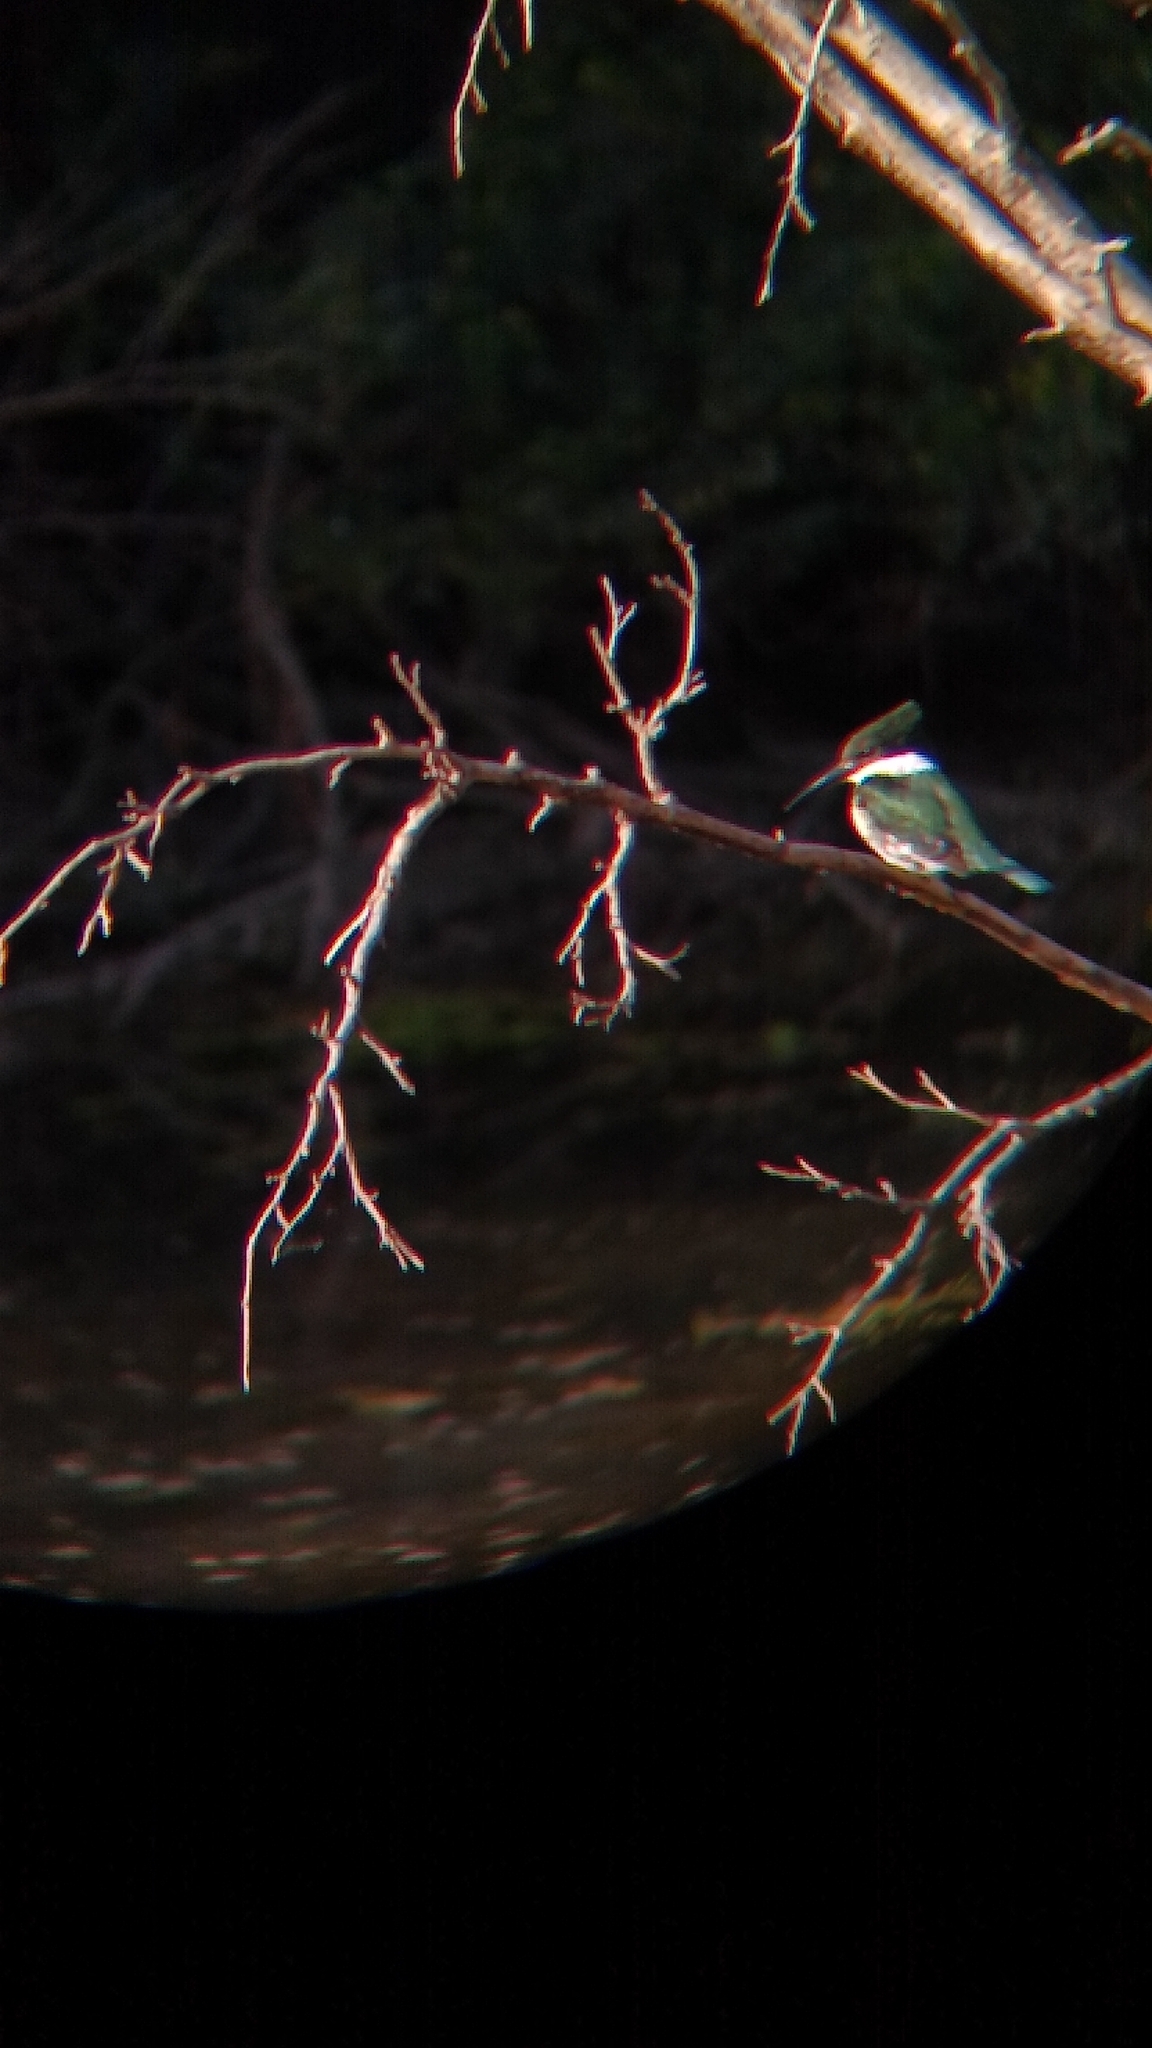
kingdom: Animalia
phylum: Chordata
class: Aves
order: Coraciiformes
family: Alcedinidae
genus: Chloroceryle
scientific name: Chloroceryle americana
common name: Green kingfisher
